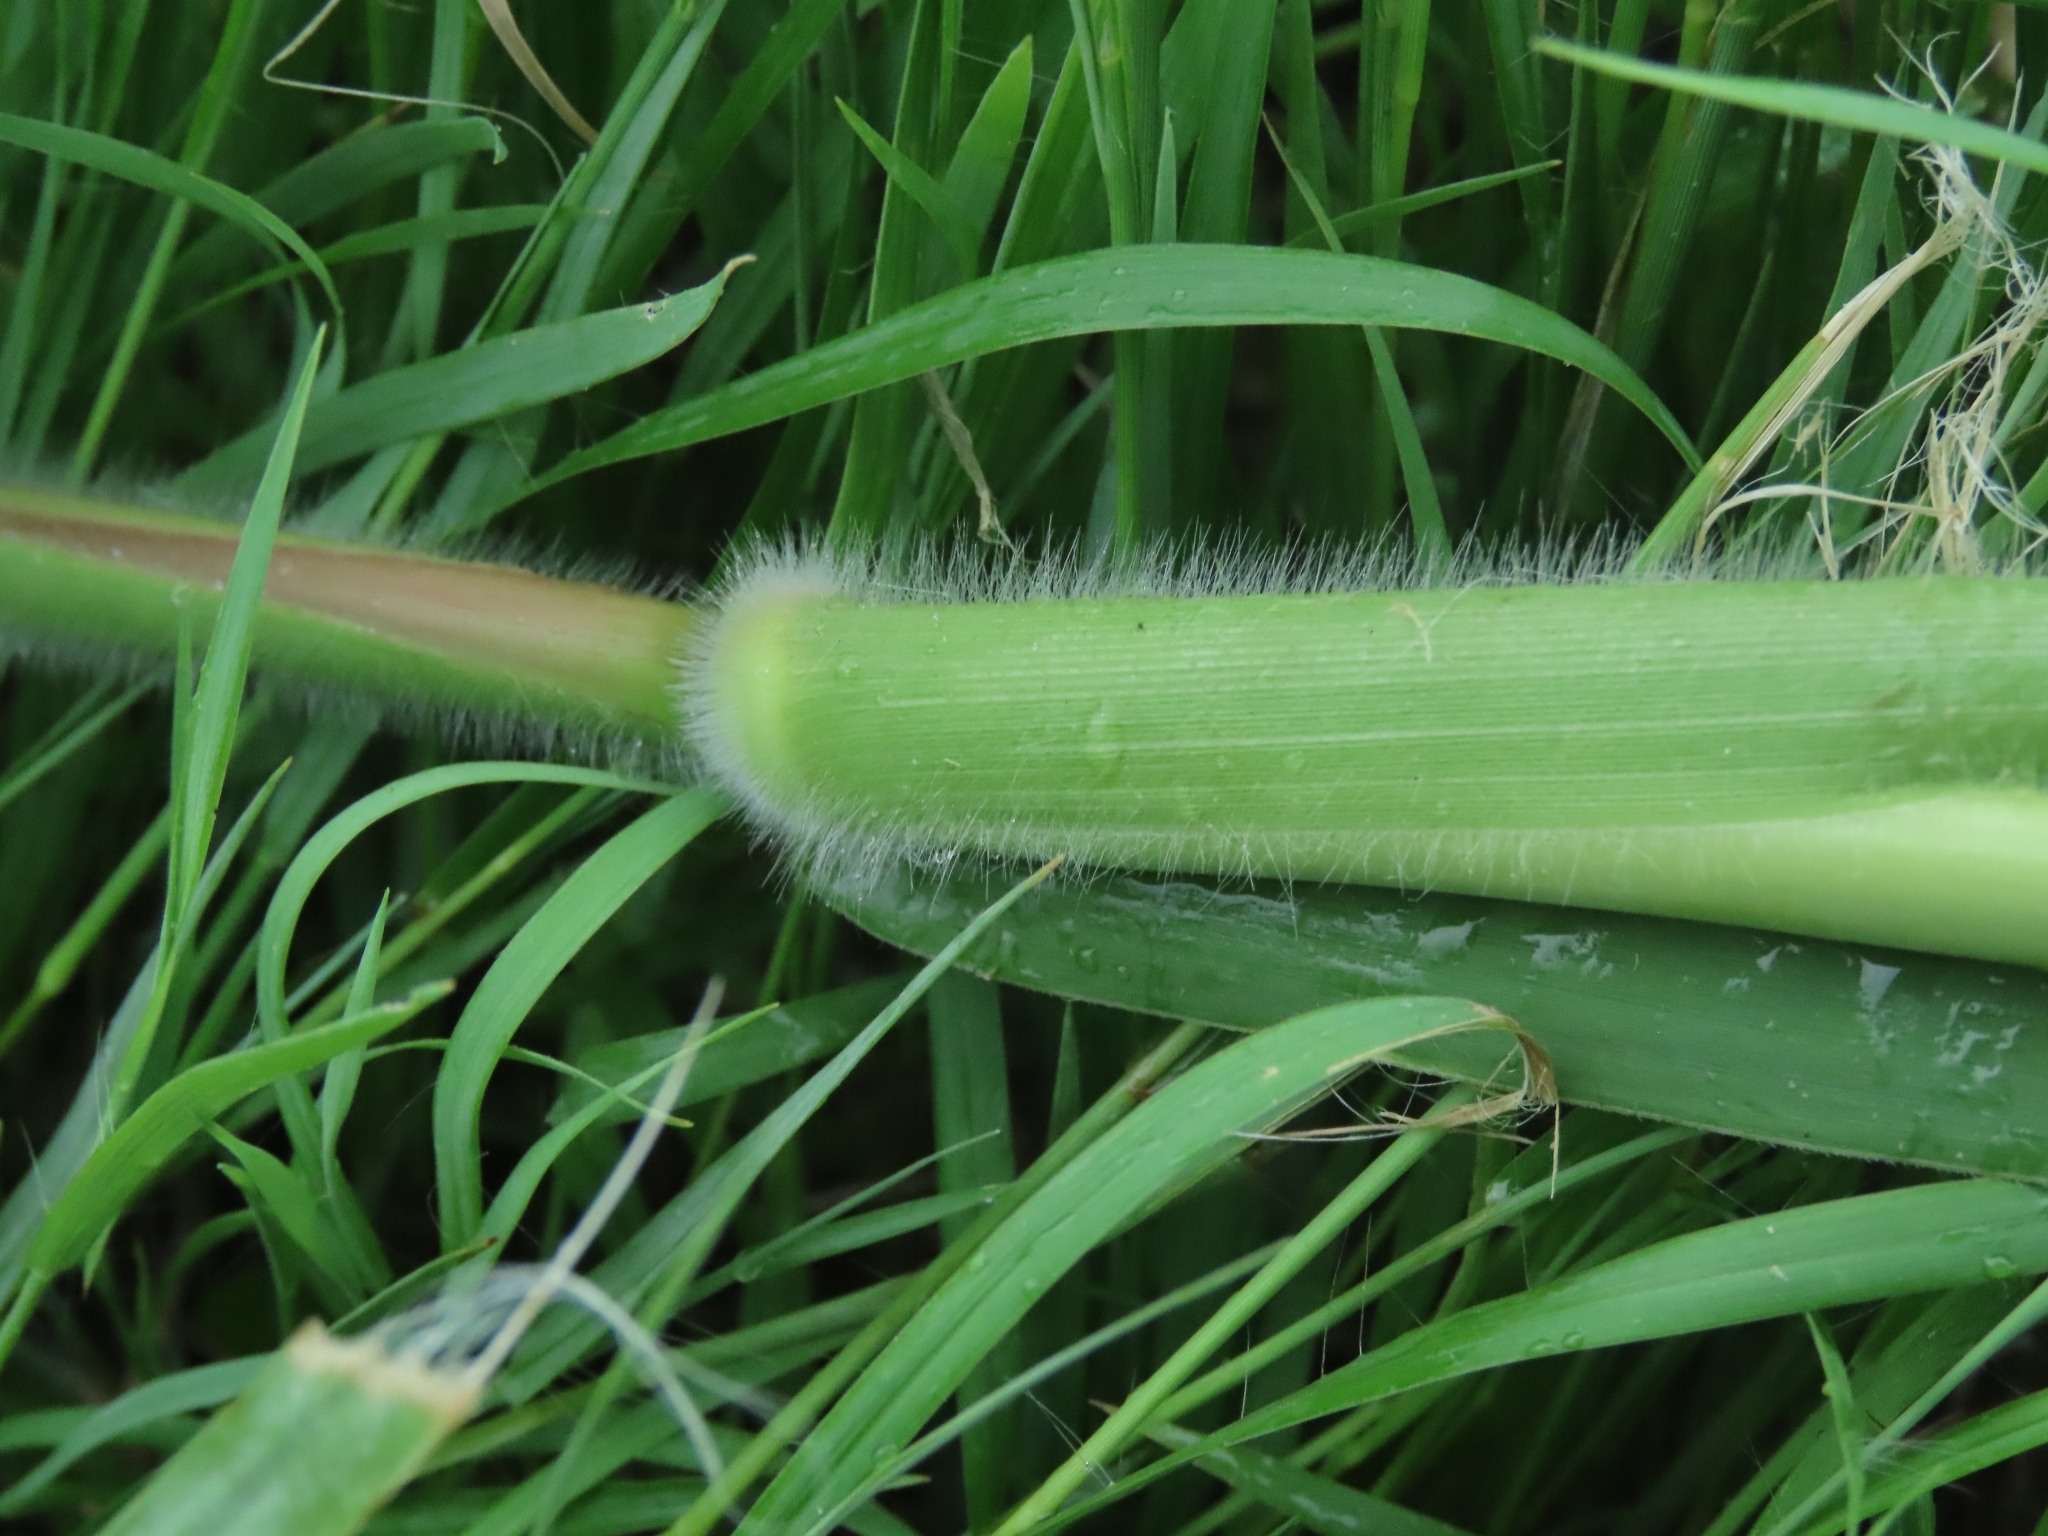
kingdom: Plantae
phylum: Tracheophyta
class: Liliopsida
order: Poales
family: Poaceae
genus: Urochloa
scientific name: Urochloa mutica
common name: Para grass
